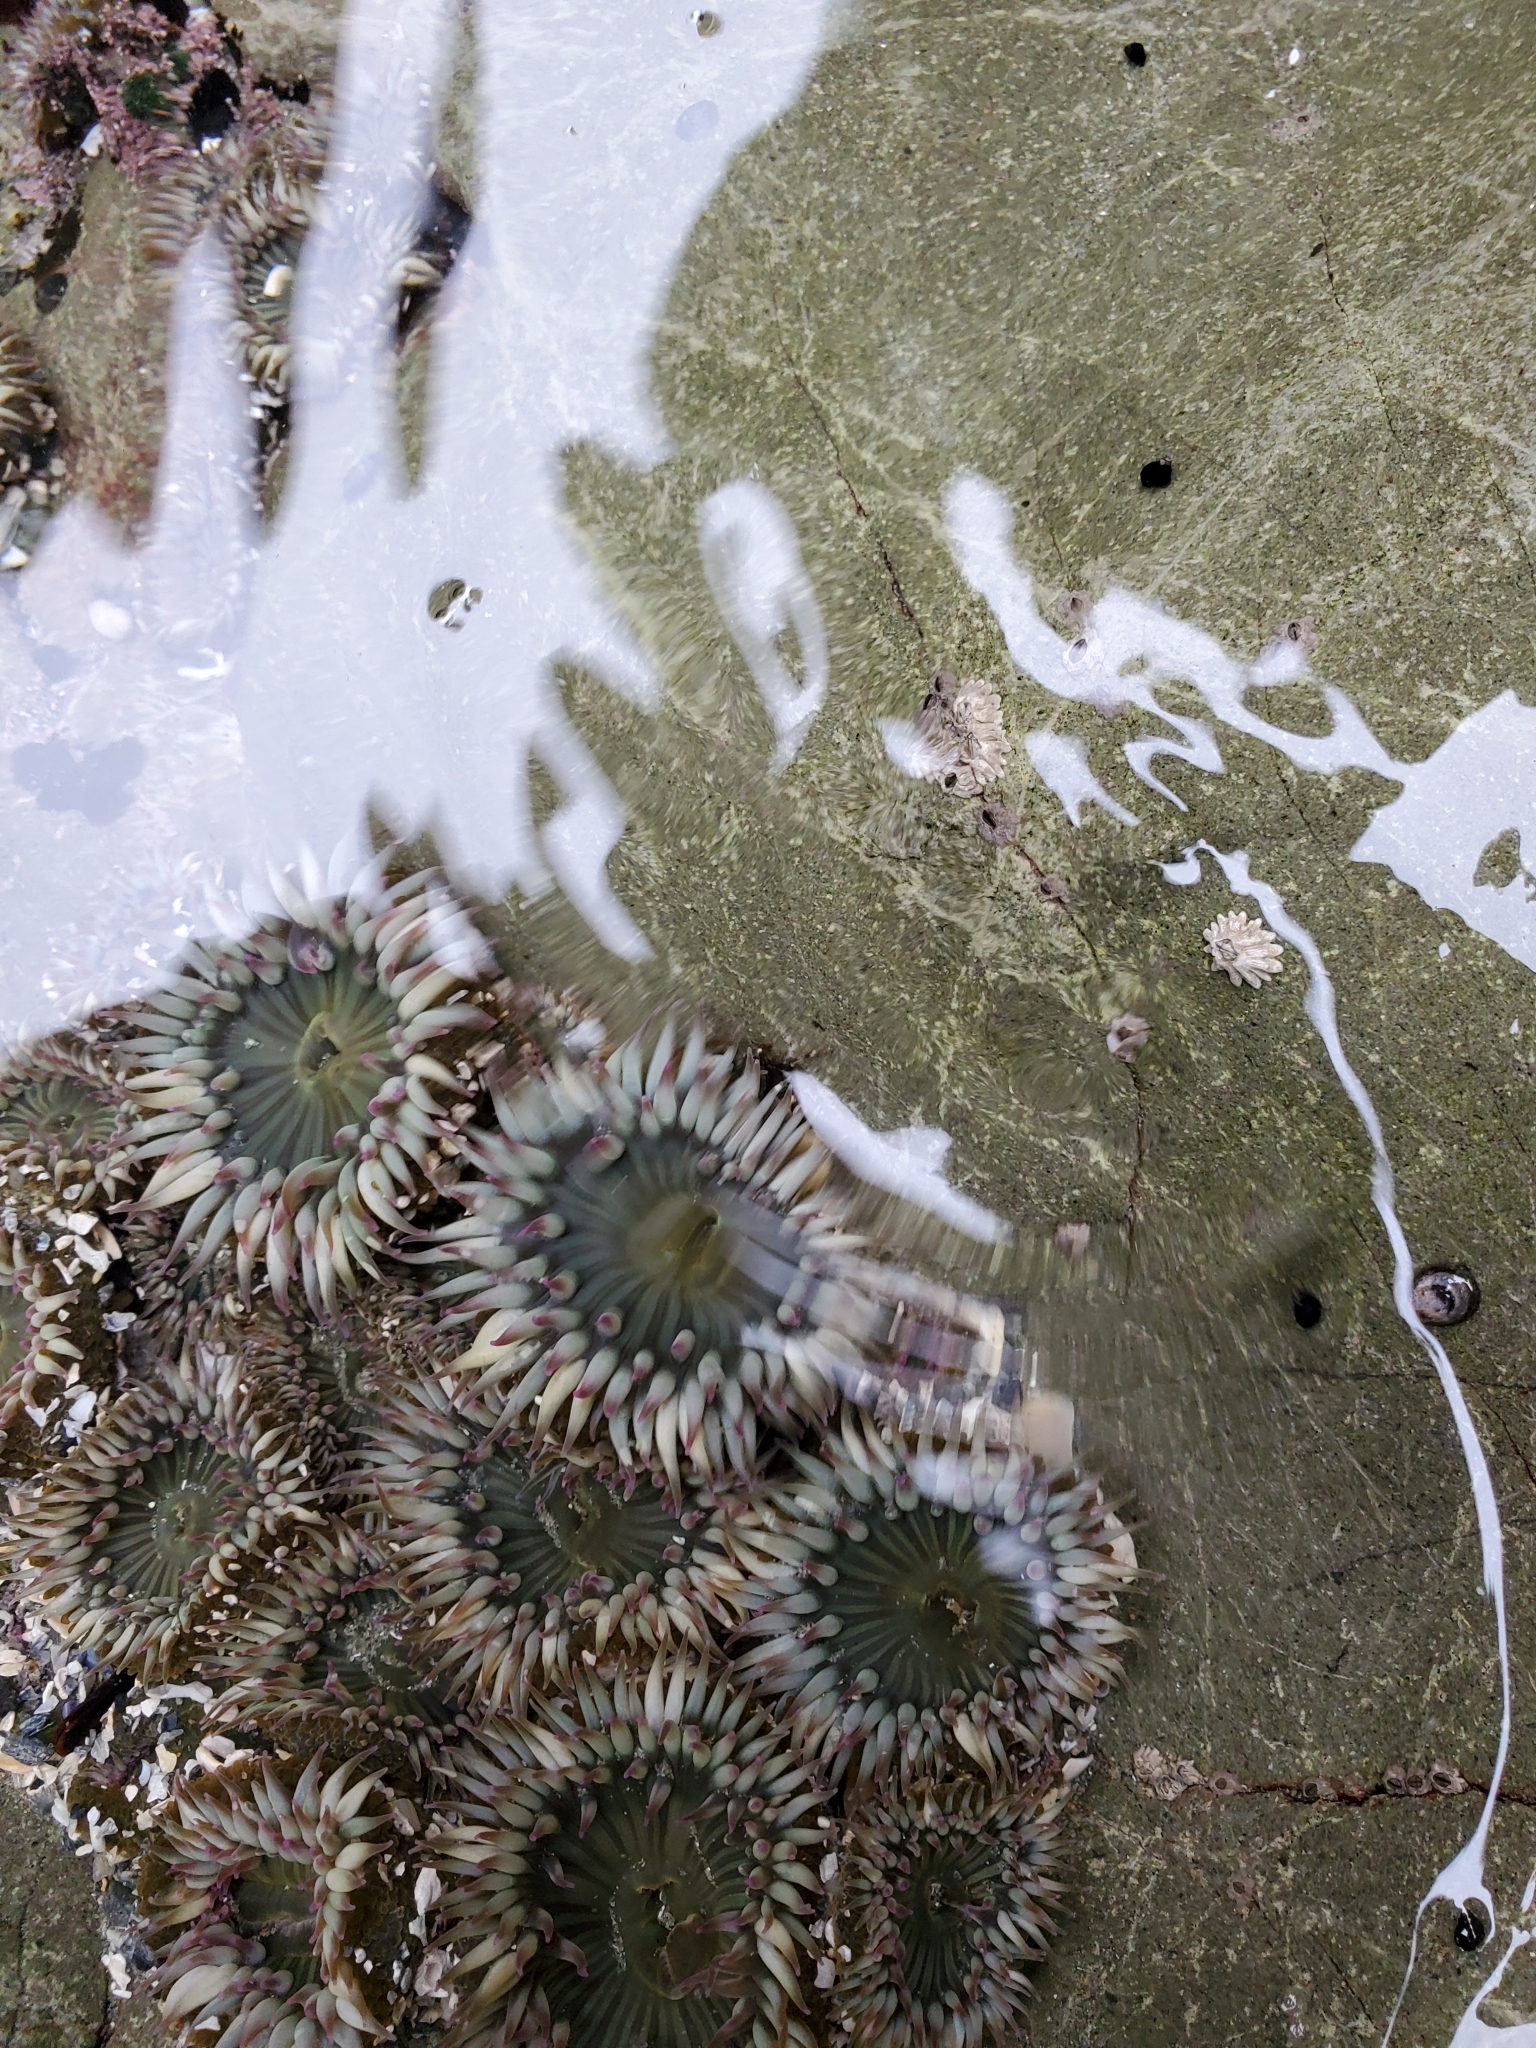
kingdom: Animalia
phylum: Cnidaria
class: Anthozoa
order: Actiniaria
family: Actiniidae
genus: Anthopleura
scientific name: Anthopleura elegantissima
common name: Clonal anemone
